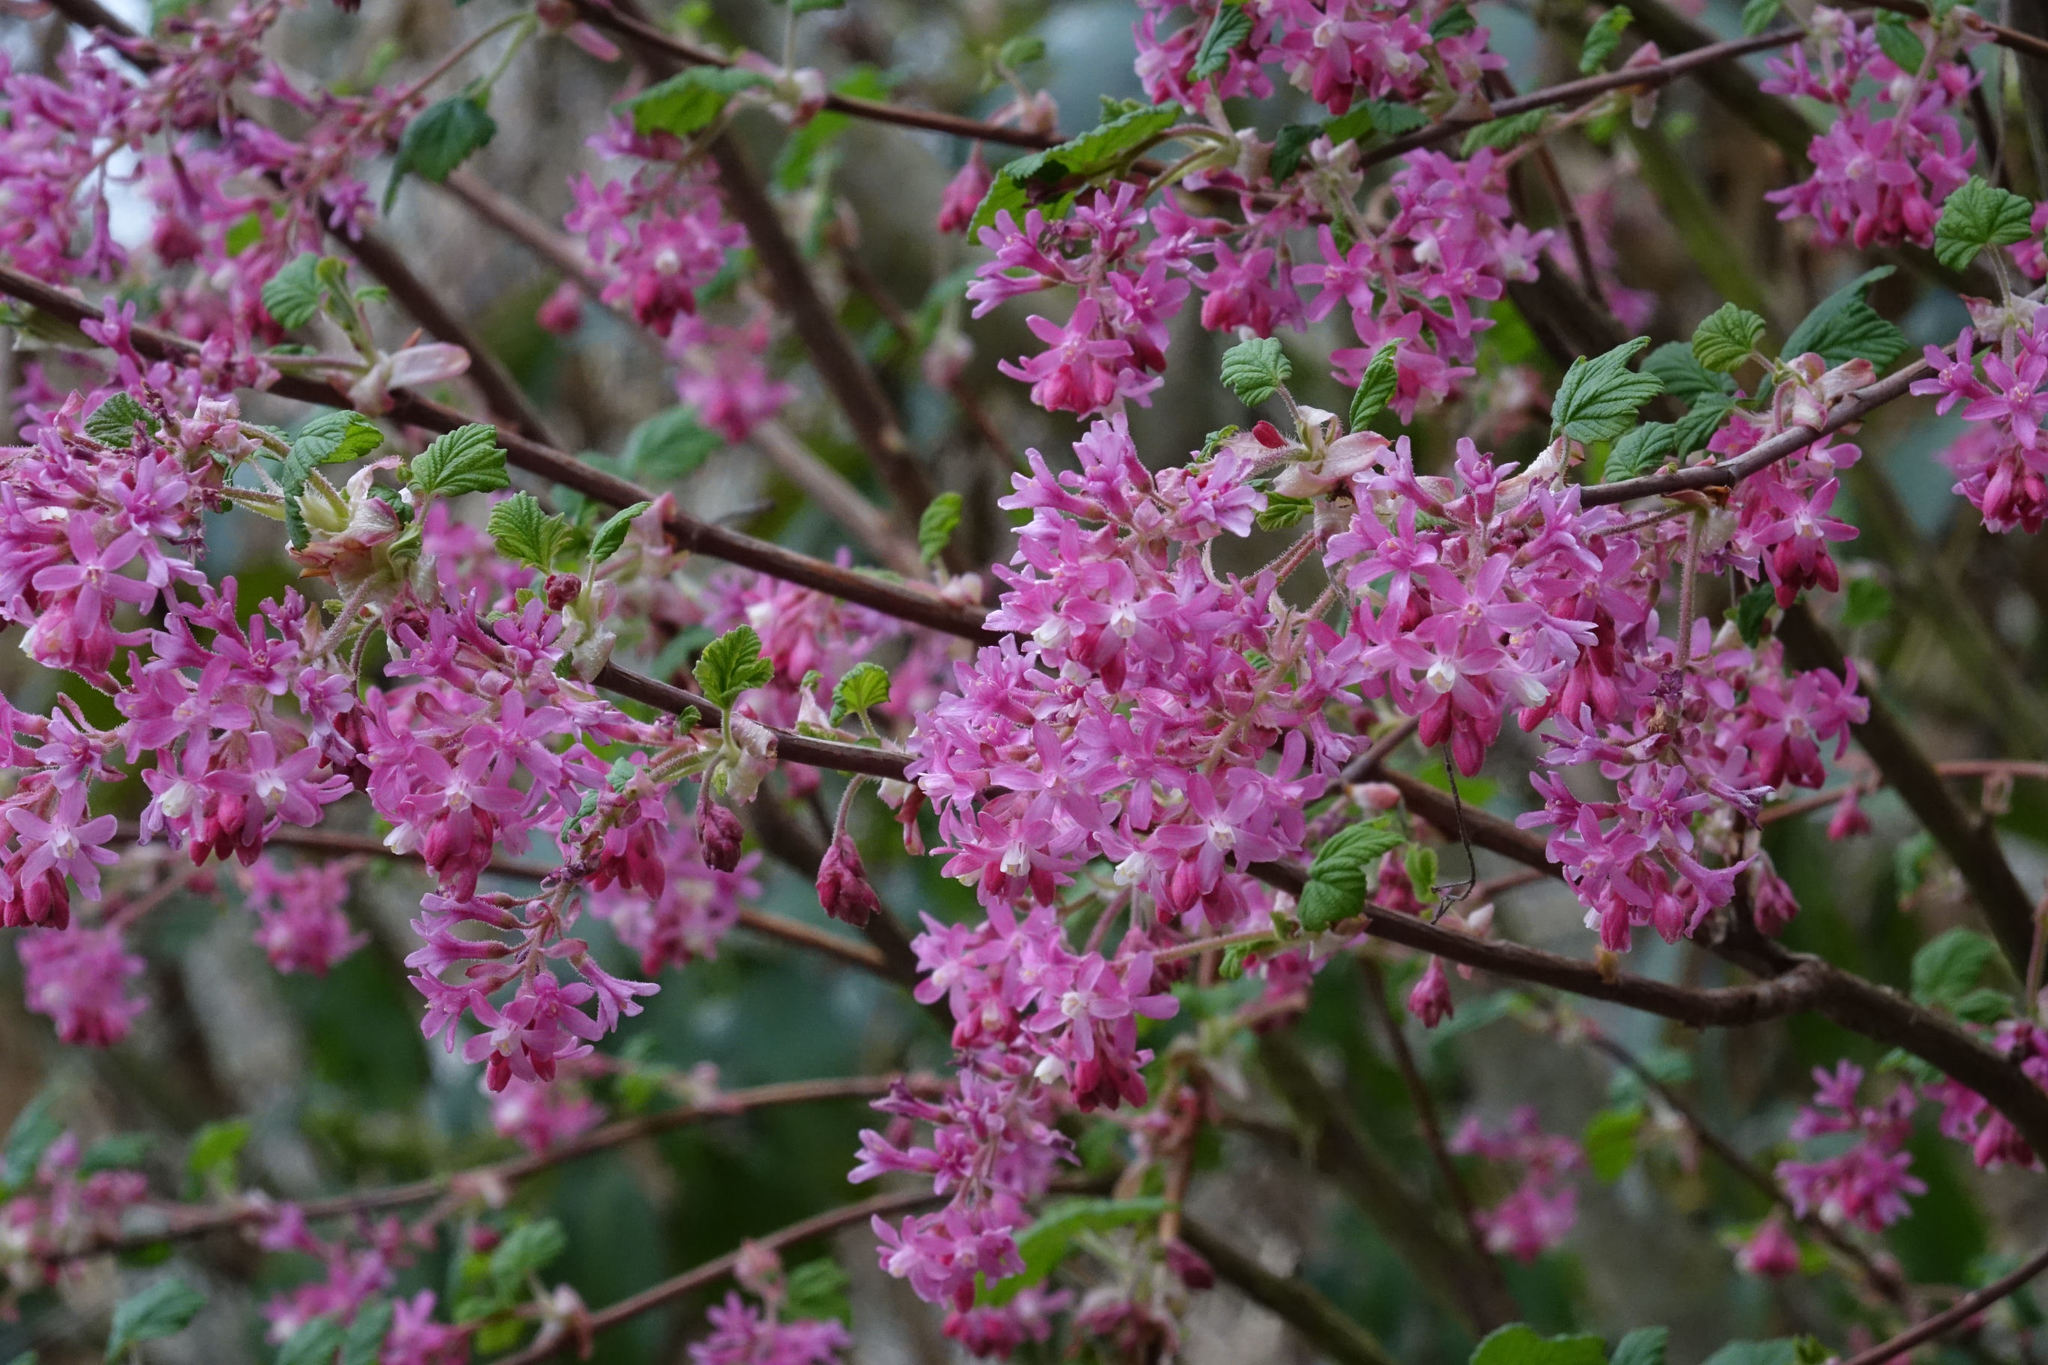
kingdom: Plantae
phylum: Tracheophyta
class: Magnoliopsida
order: Saxifragales
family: Grossulariaceae
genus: Ribes
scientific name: Ribes sanguineum
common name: Flowering currant
